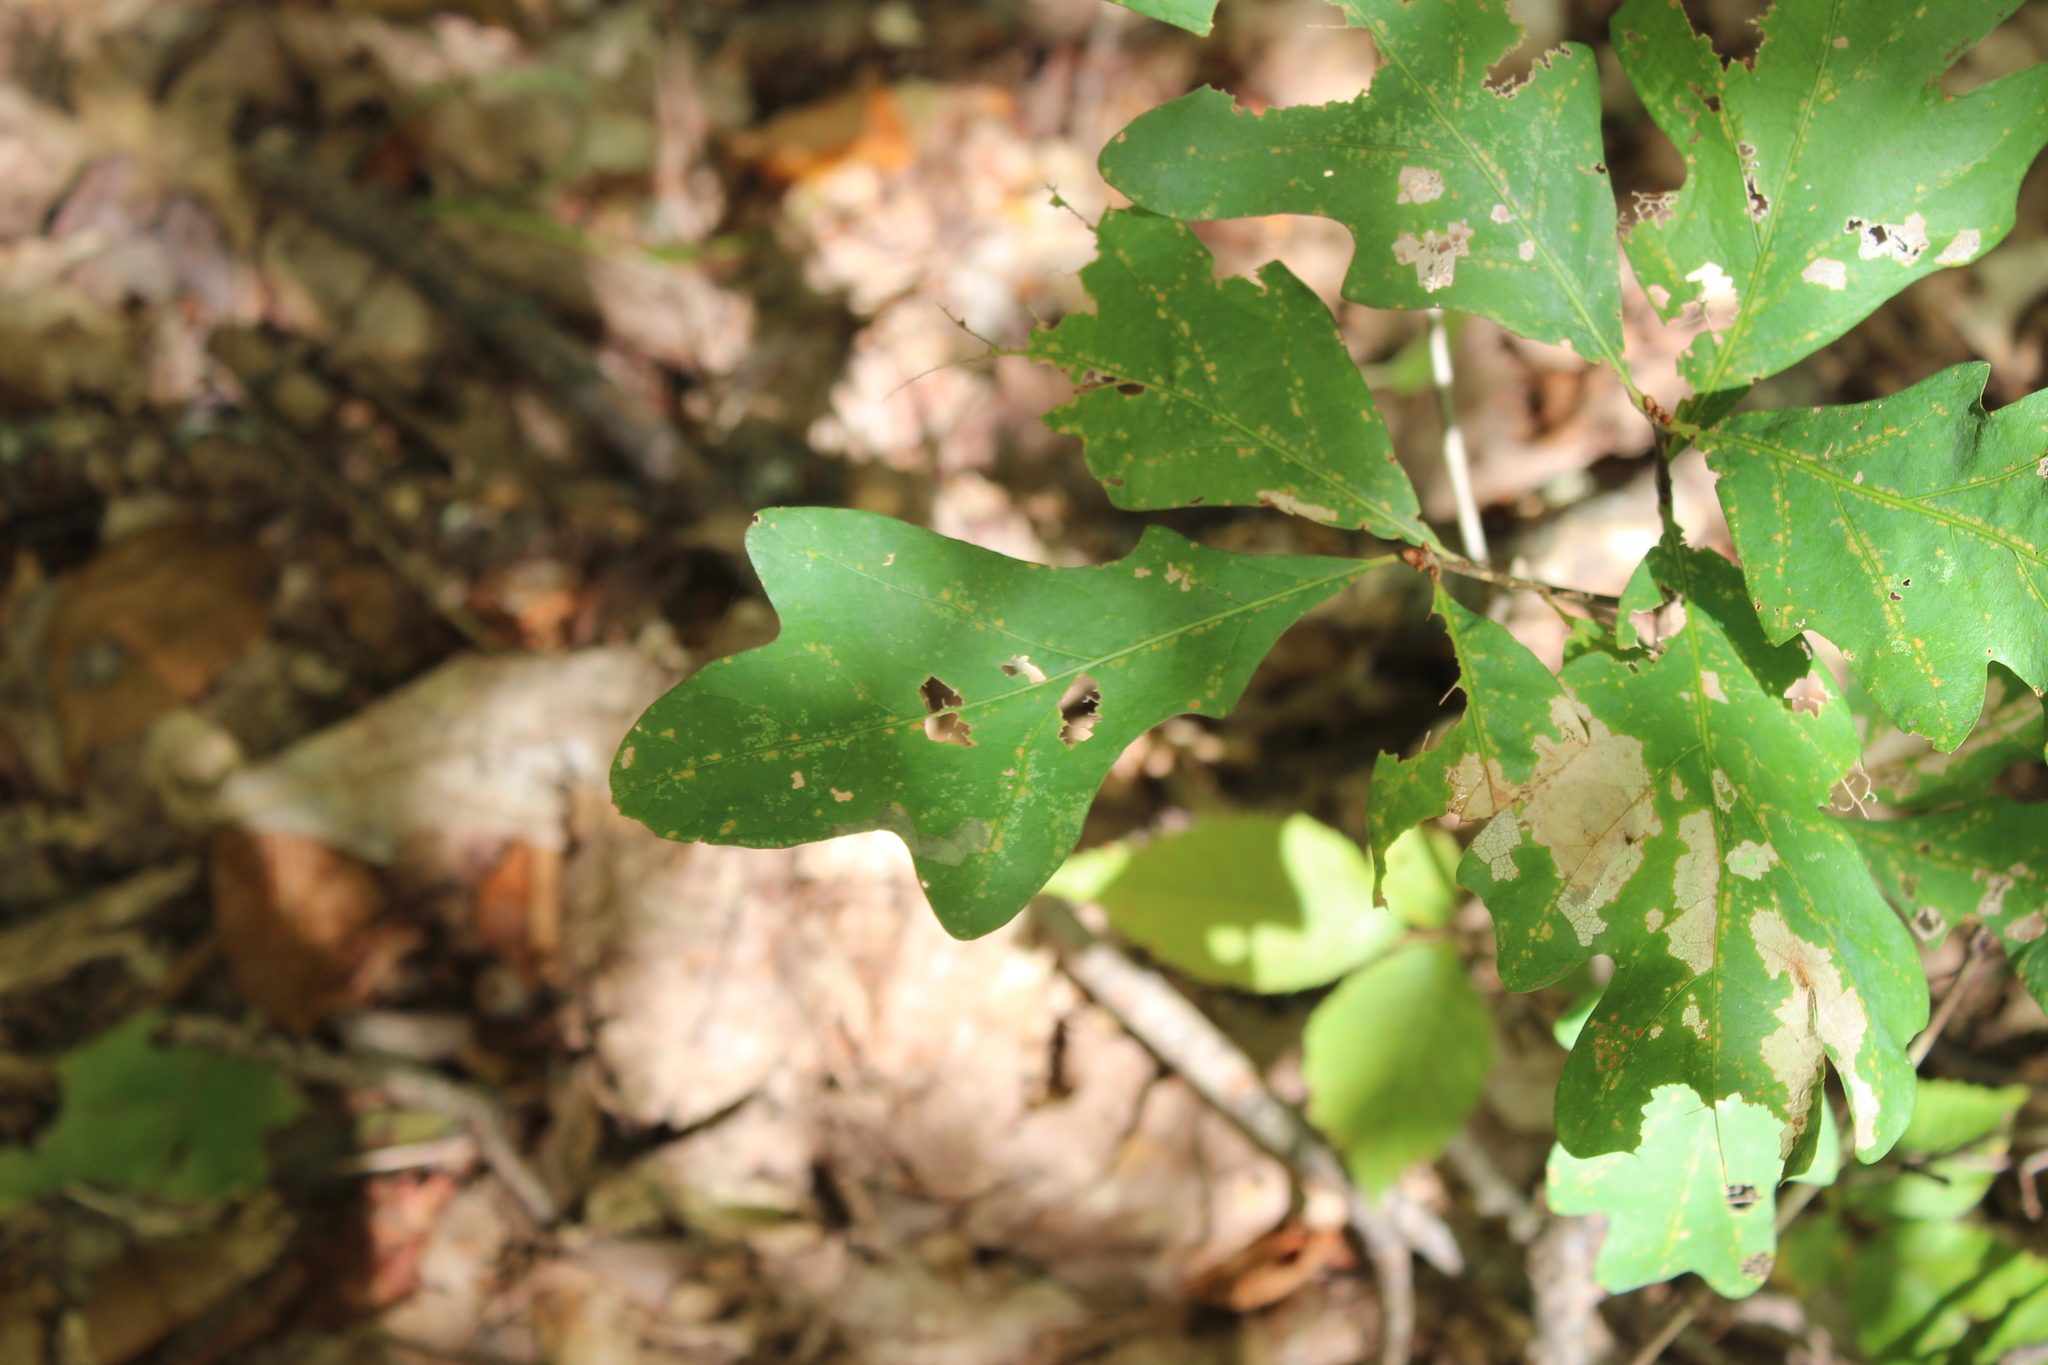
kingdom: Plantae
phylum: Tracheophyta
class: Magnoliopsida
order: Fagales
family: Fagaceae
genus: Quercus
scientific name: Quercus alba
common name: White oak
